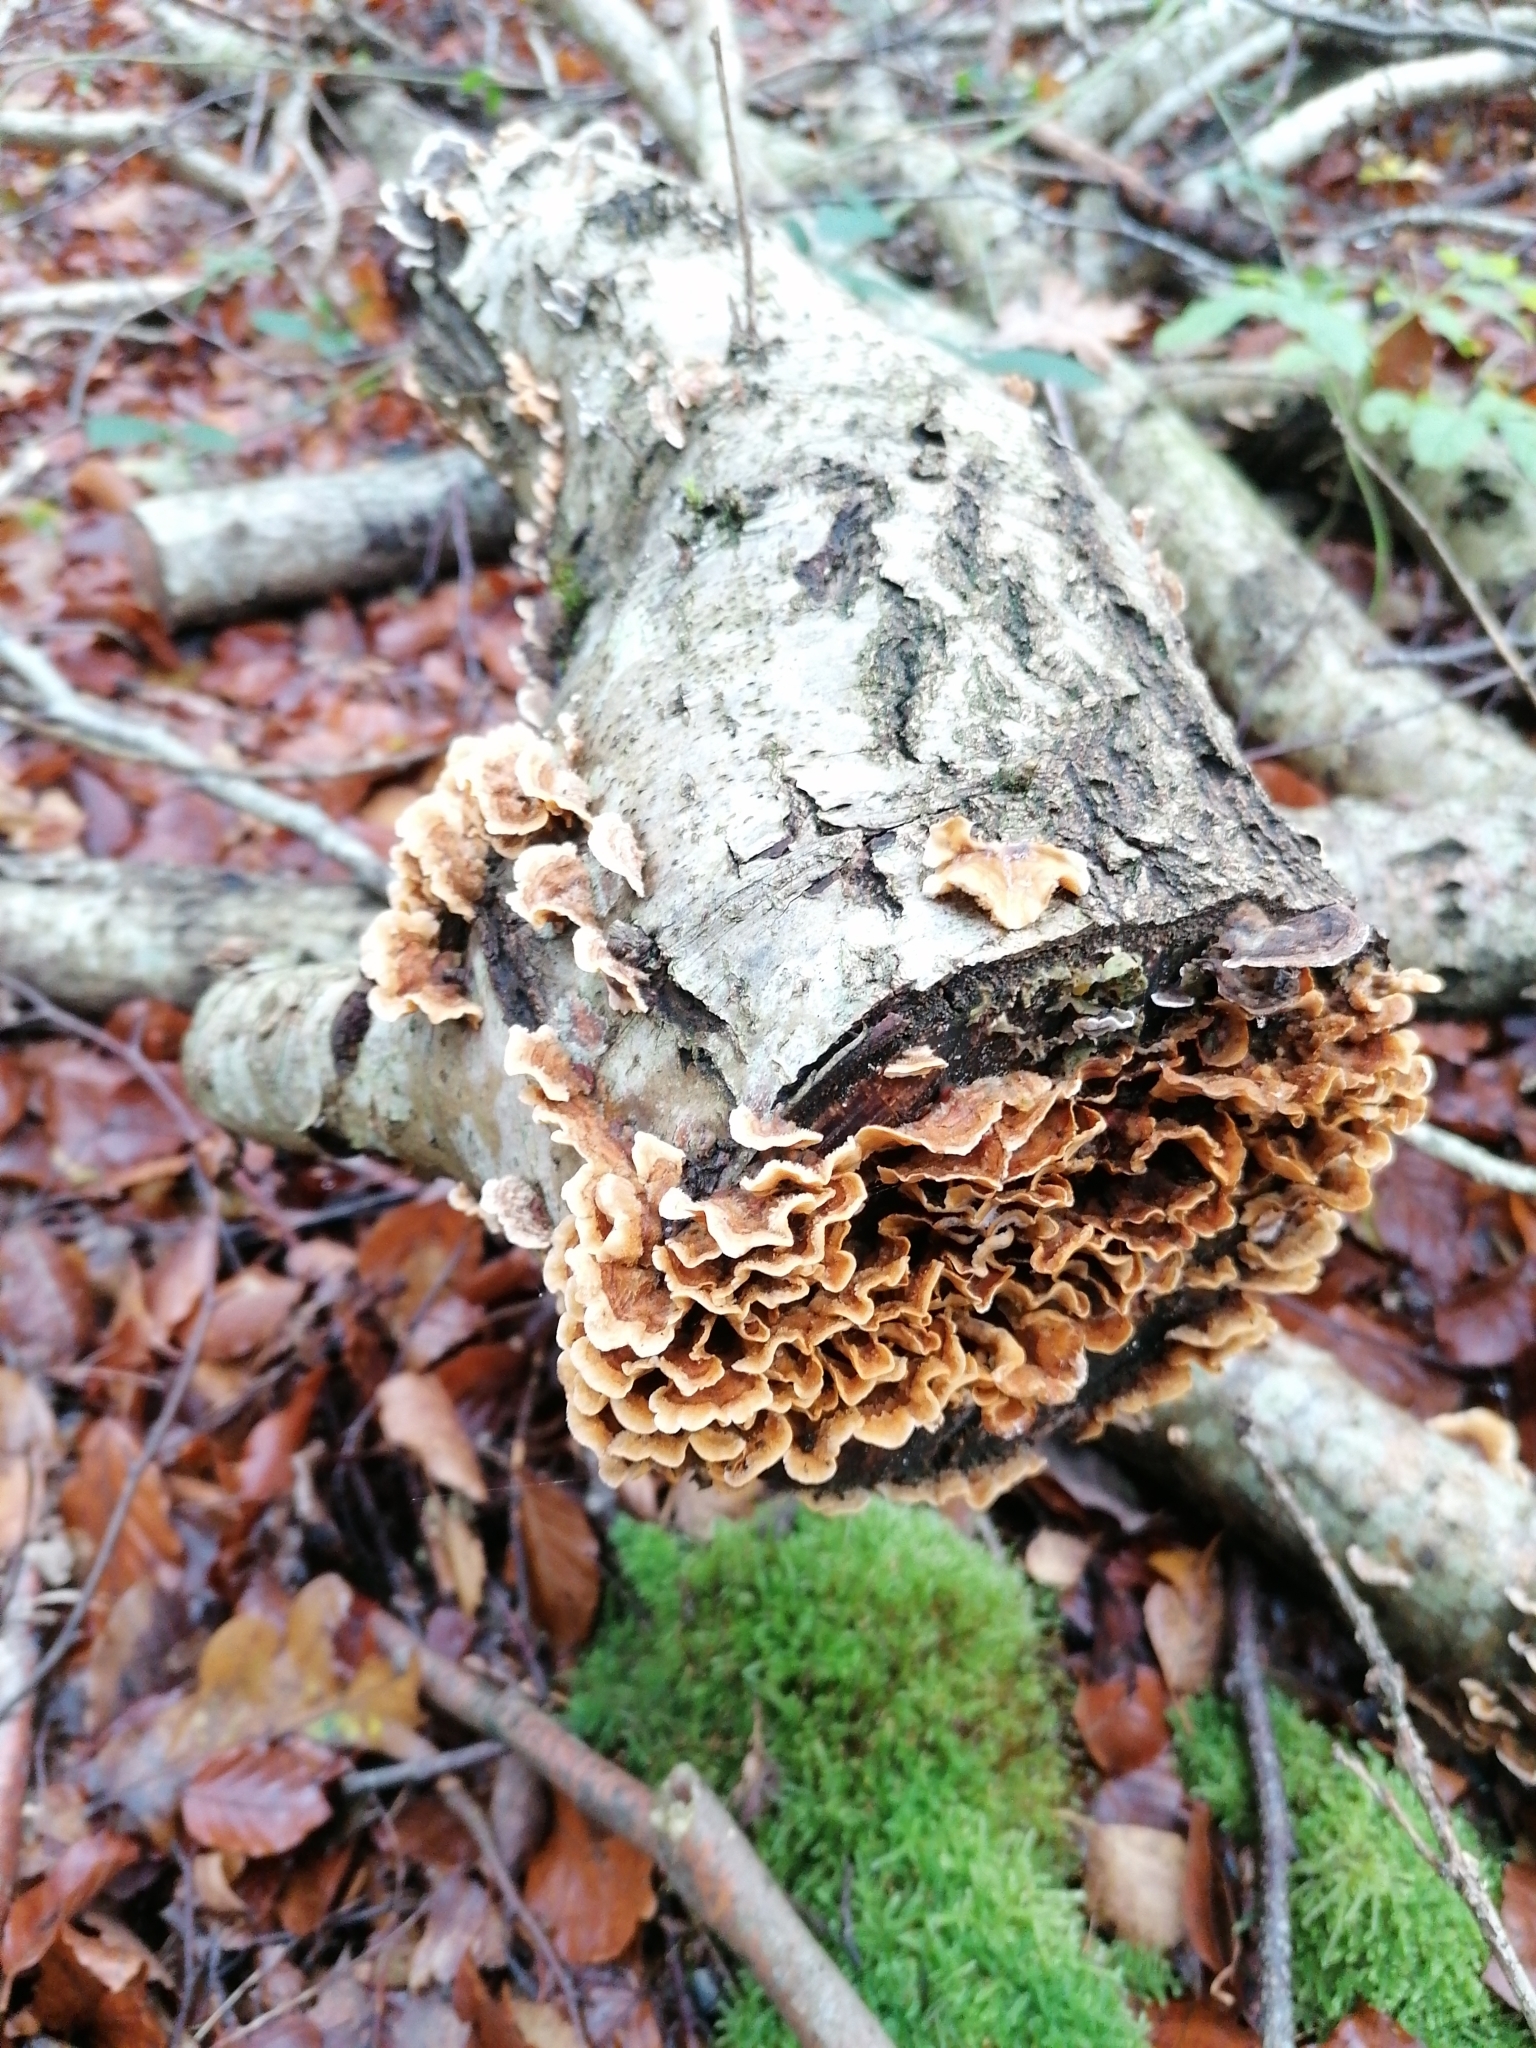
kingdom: Fungi
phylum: Basidiomycota
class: Agaricomycetes
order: Russulales
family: Stereaceae
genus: Stereum
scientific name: Stereum hirsutum
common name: Hairy curtain crust
